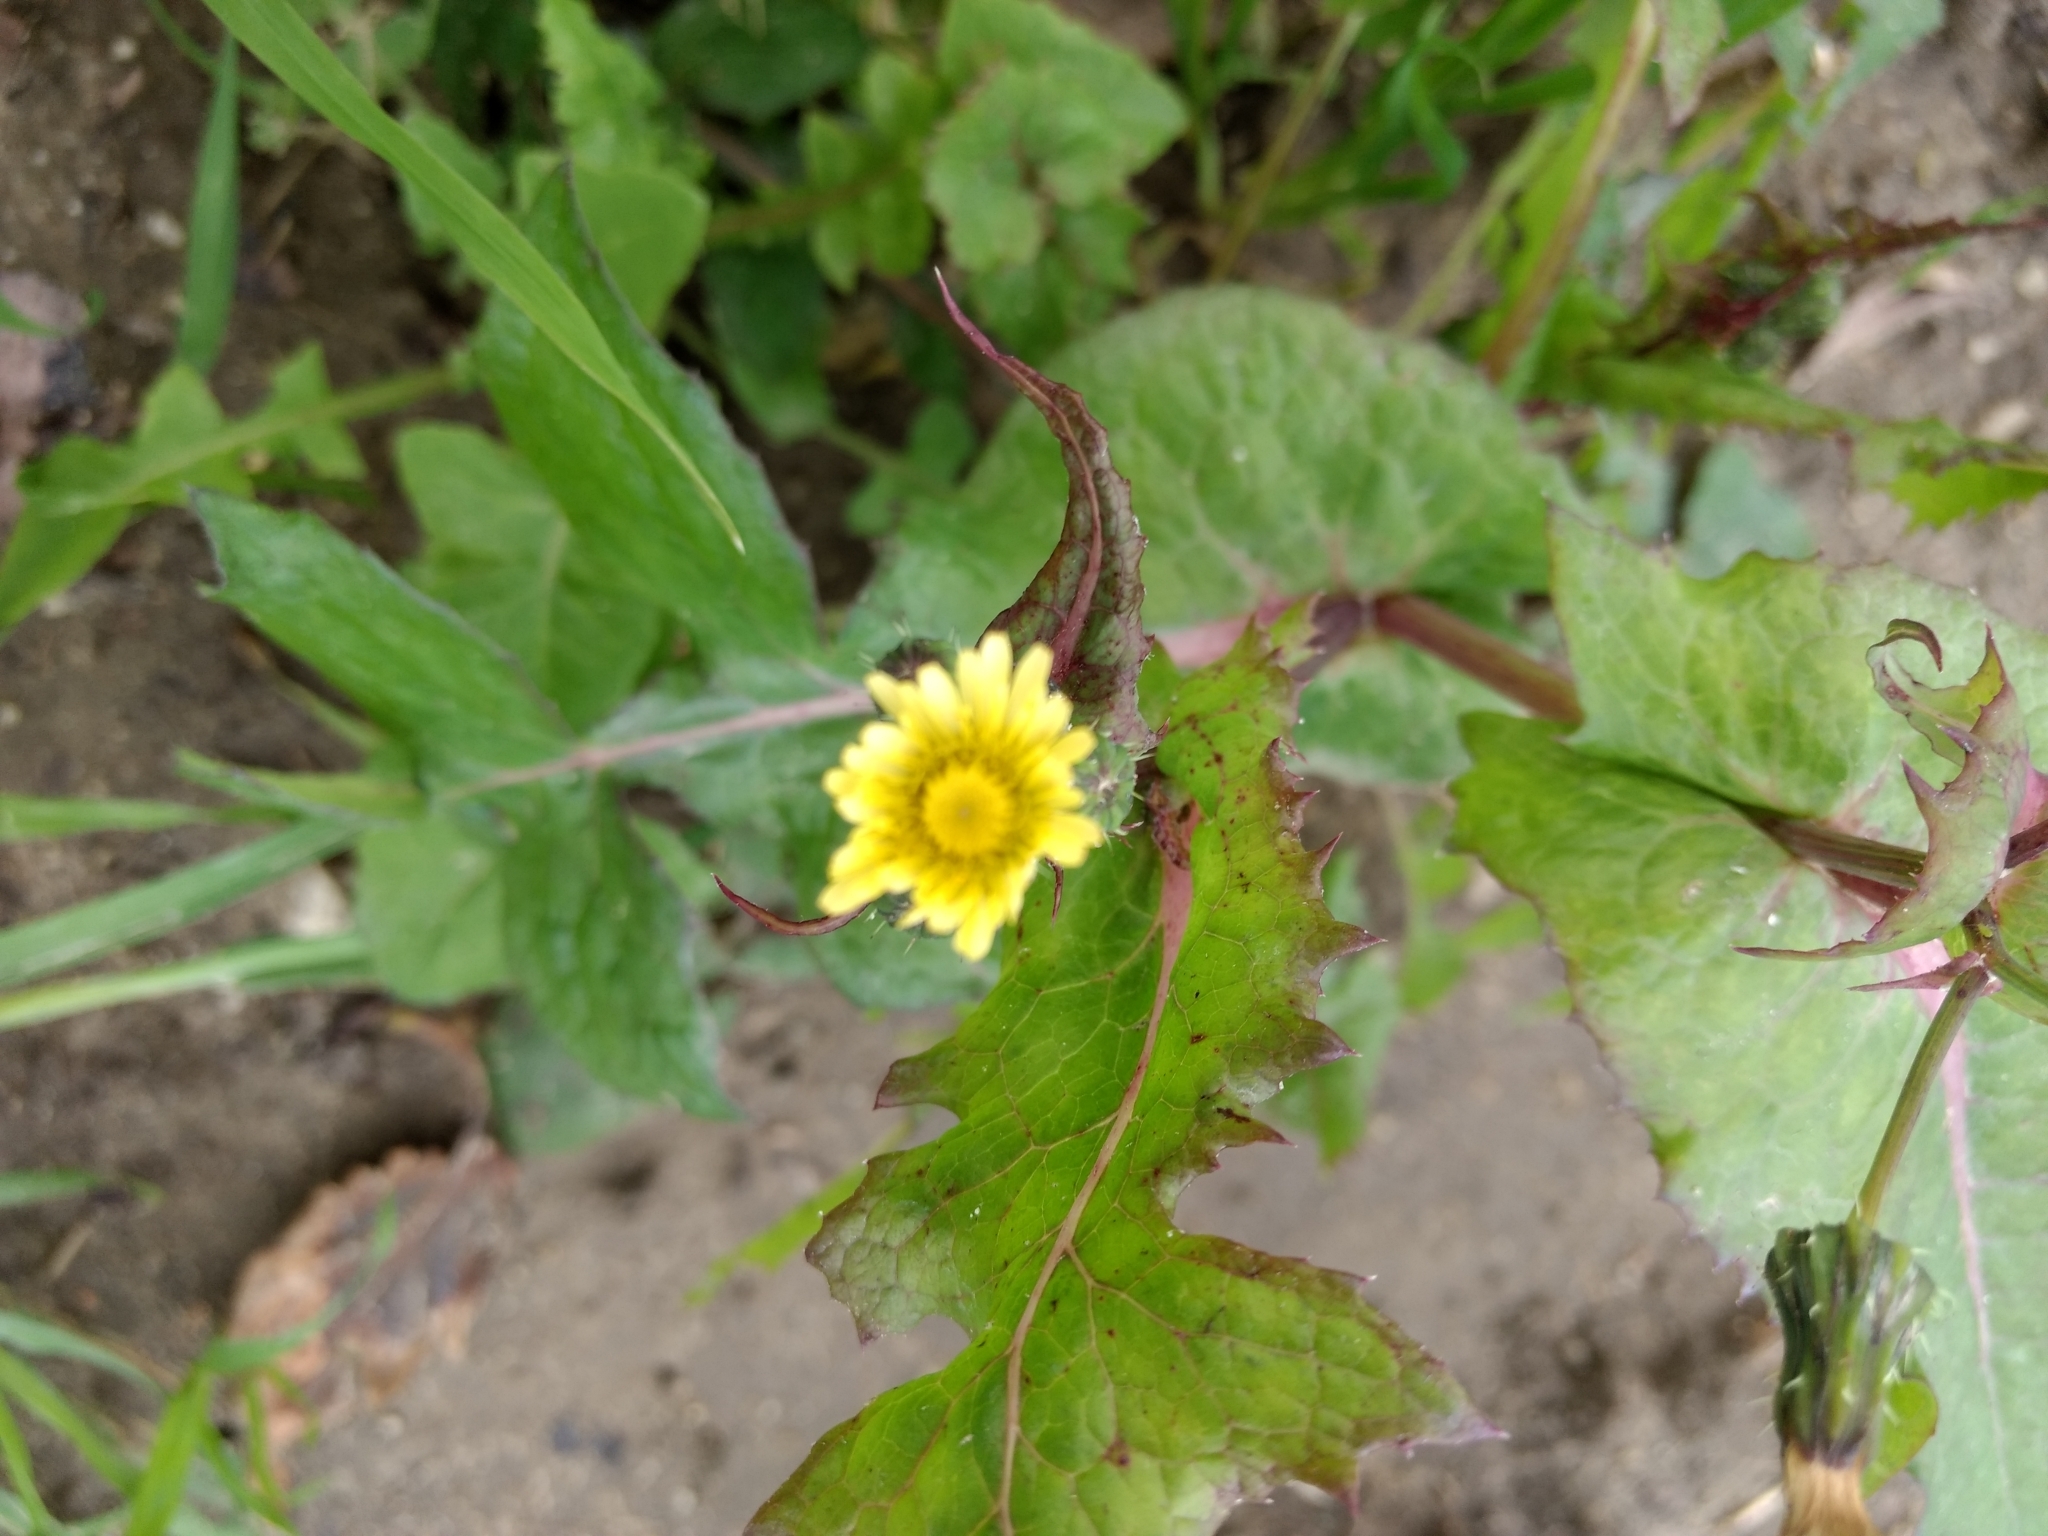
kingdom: Plantae
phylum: Tracheophyta
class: Magnoliopsida
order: Asterales
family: Asteraceae
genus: Sonchus
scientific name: Sonchus oleraceus
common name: Common sowthistle
